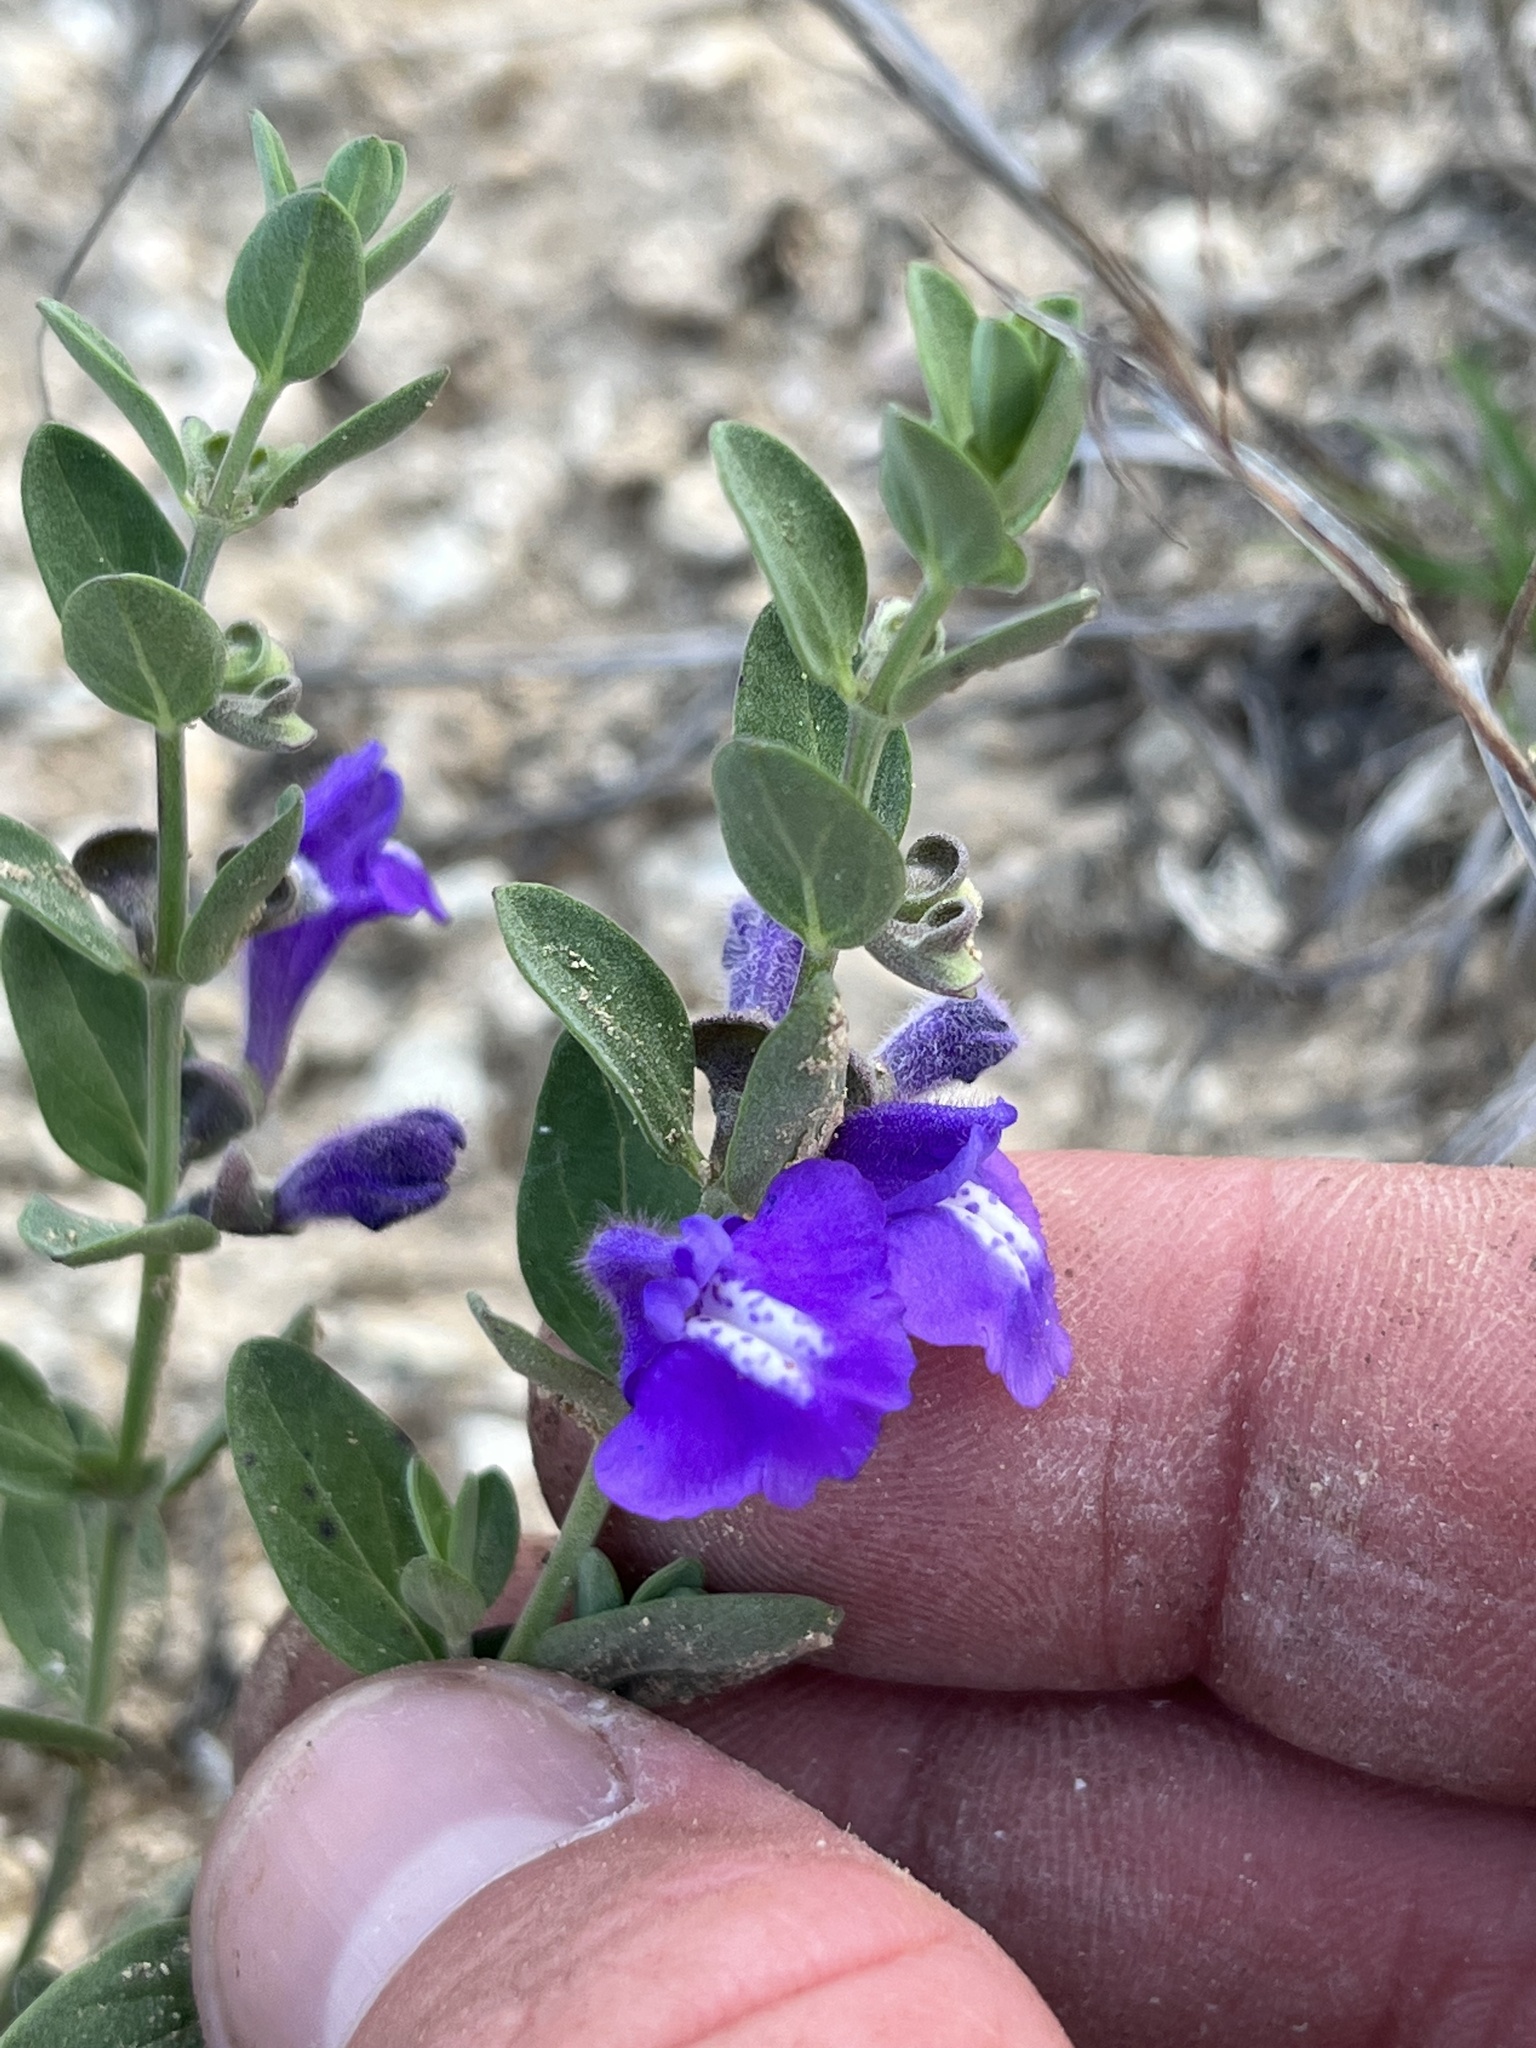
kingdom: Plantae
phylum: Tracheophyta
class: Magnoliopsida
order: Lamiales
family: Lamiaceae
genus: Scutellaria
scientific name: Scutellaria wrightii
